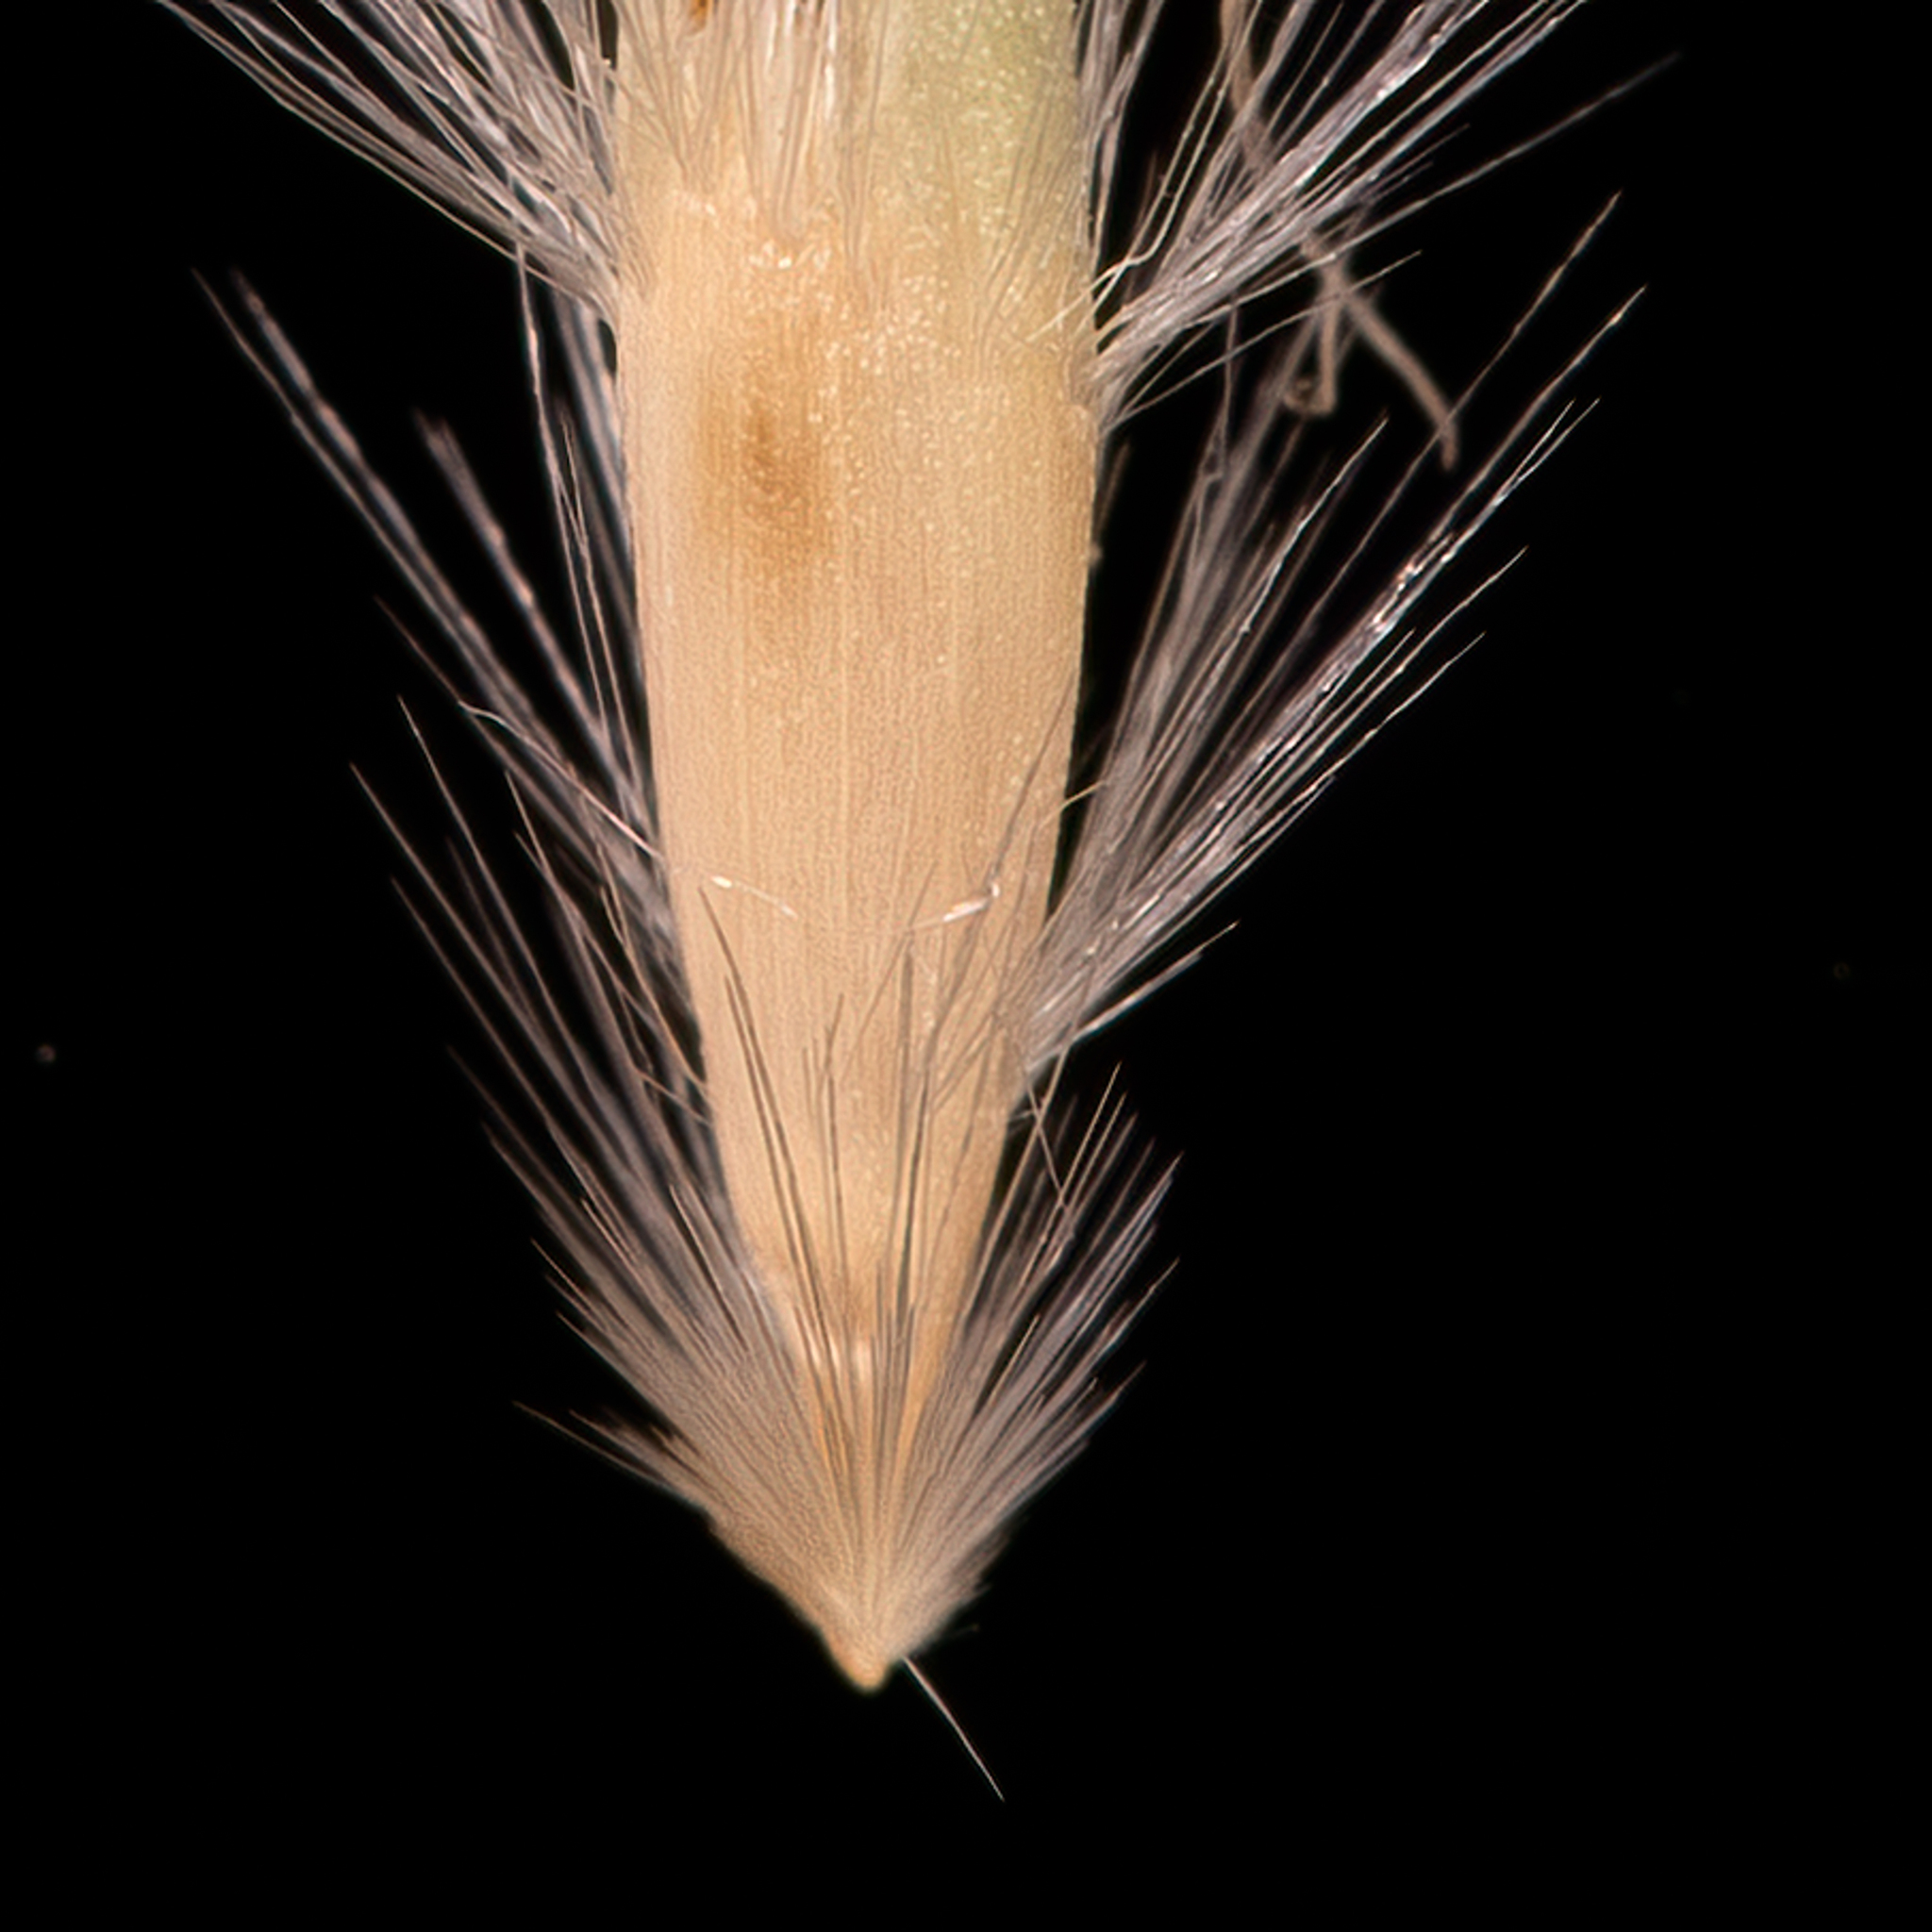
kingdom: Plantae
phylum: Tracheophyta
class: Liliopsida
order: Poales
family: Poaceae
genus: Rytidosperma
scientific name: Rytidosperma laeve
